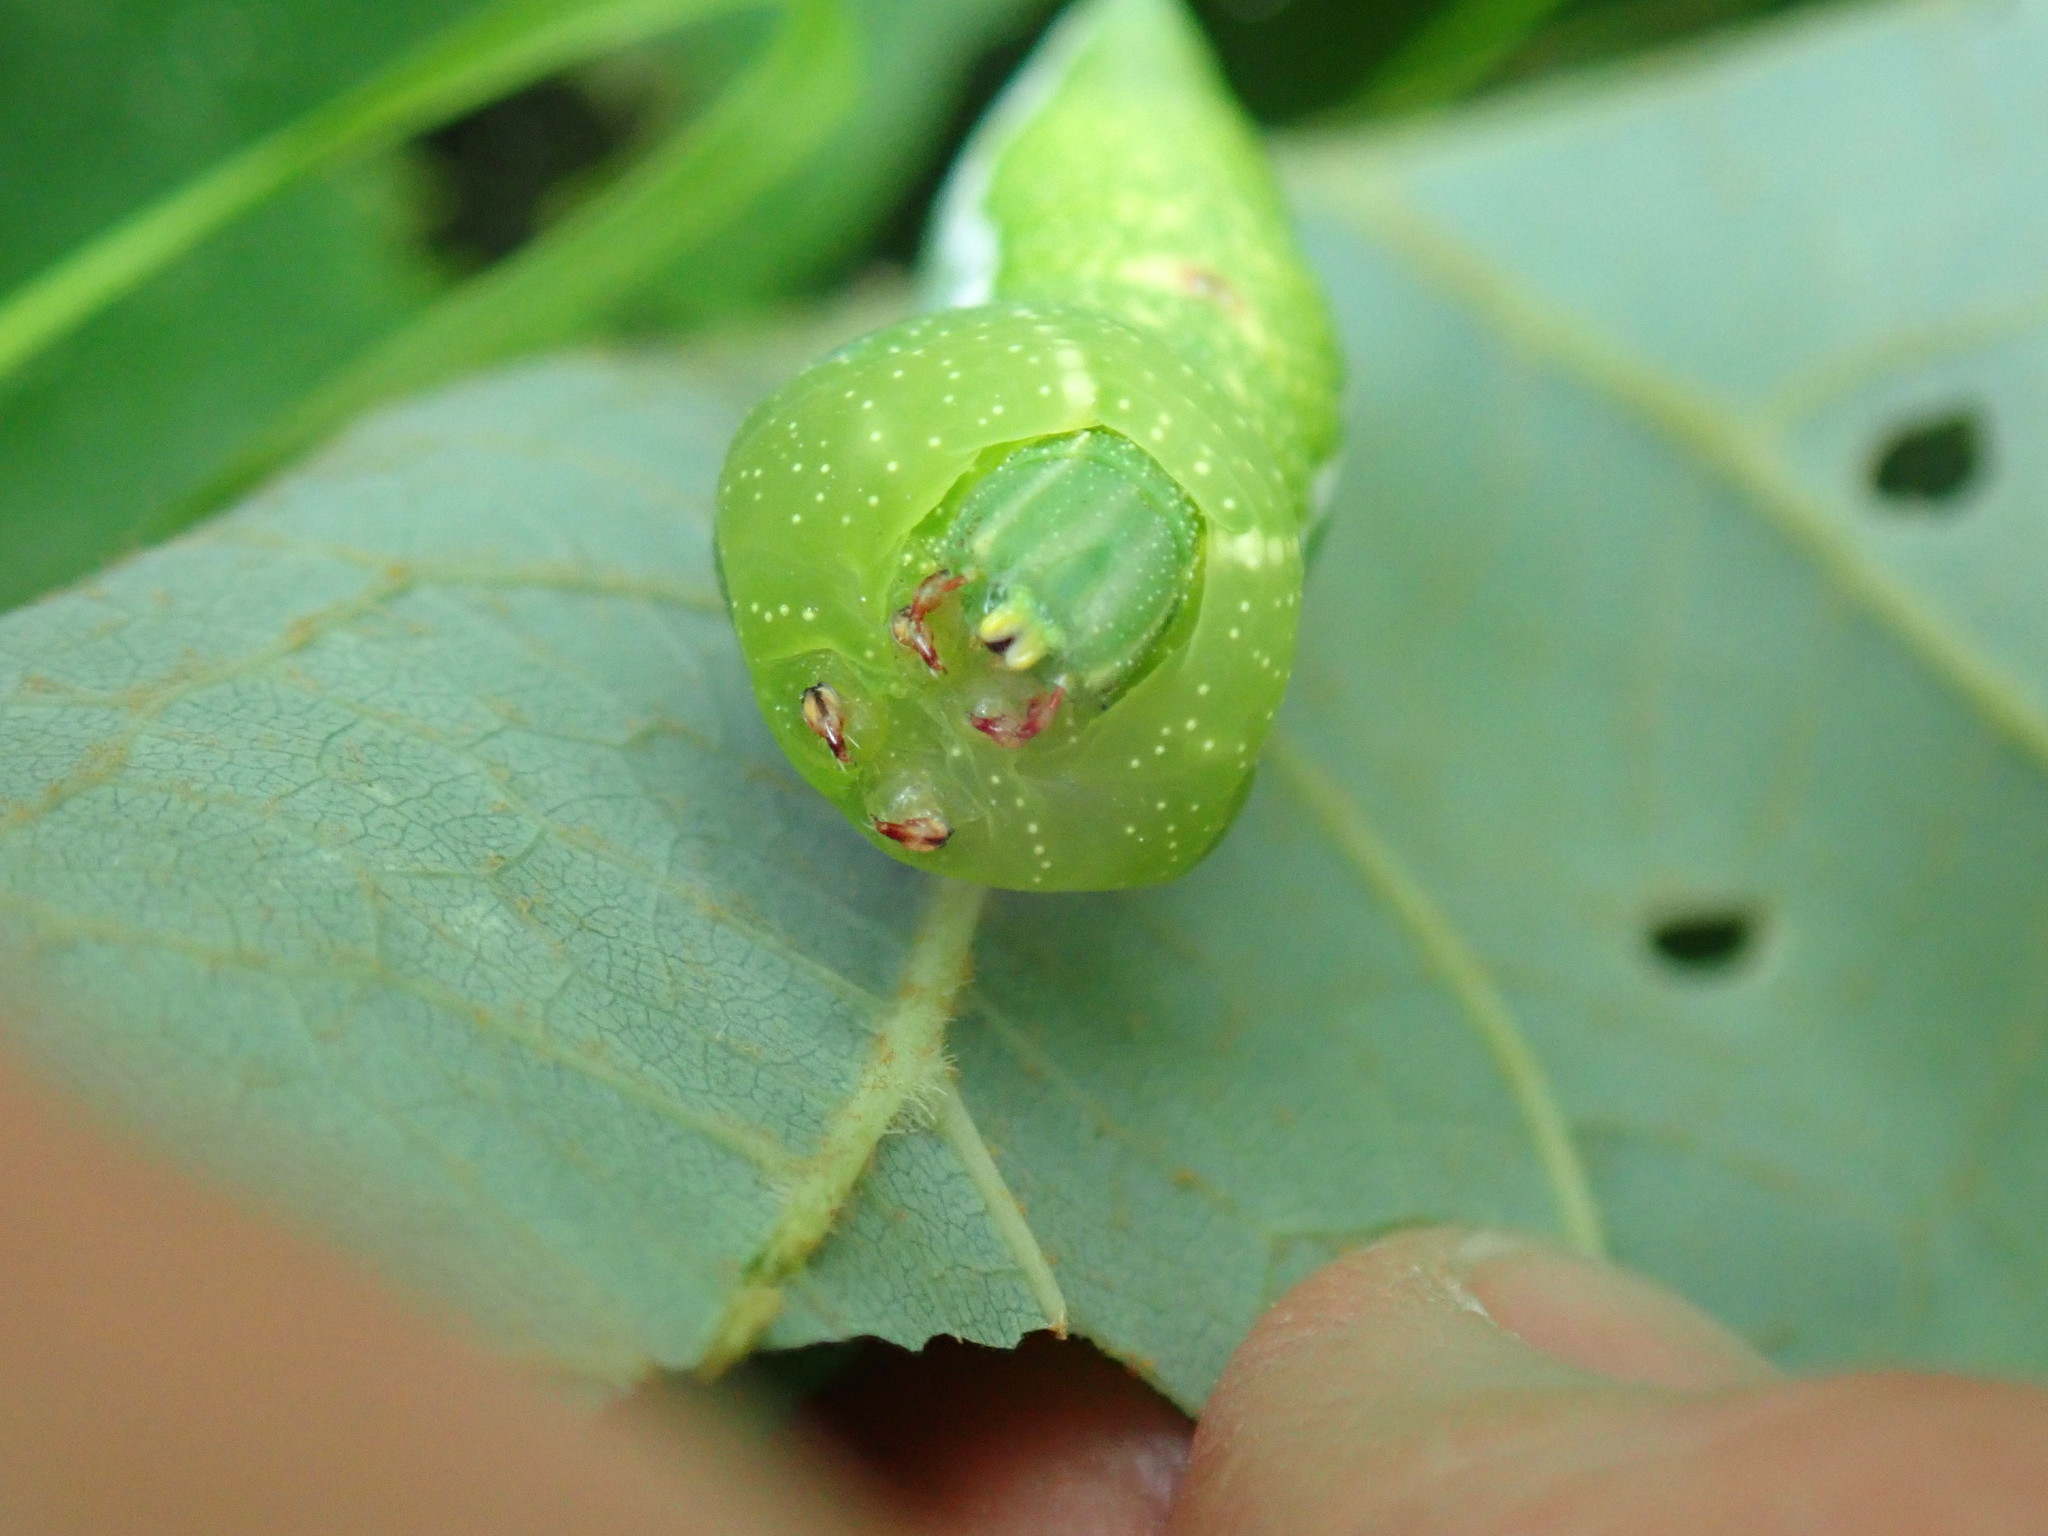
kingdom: Animalia
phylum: Arthropoda
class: Insecta
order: Lepidoptera
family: Sphingidae
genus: Darapsa
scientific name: Darapsa myron
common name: Hog sphinx
